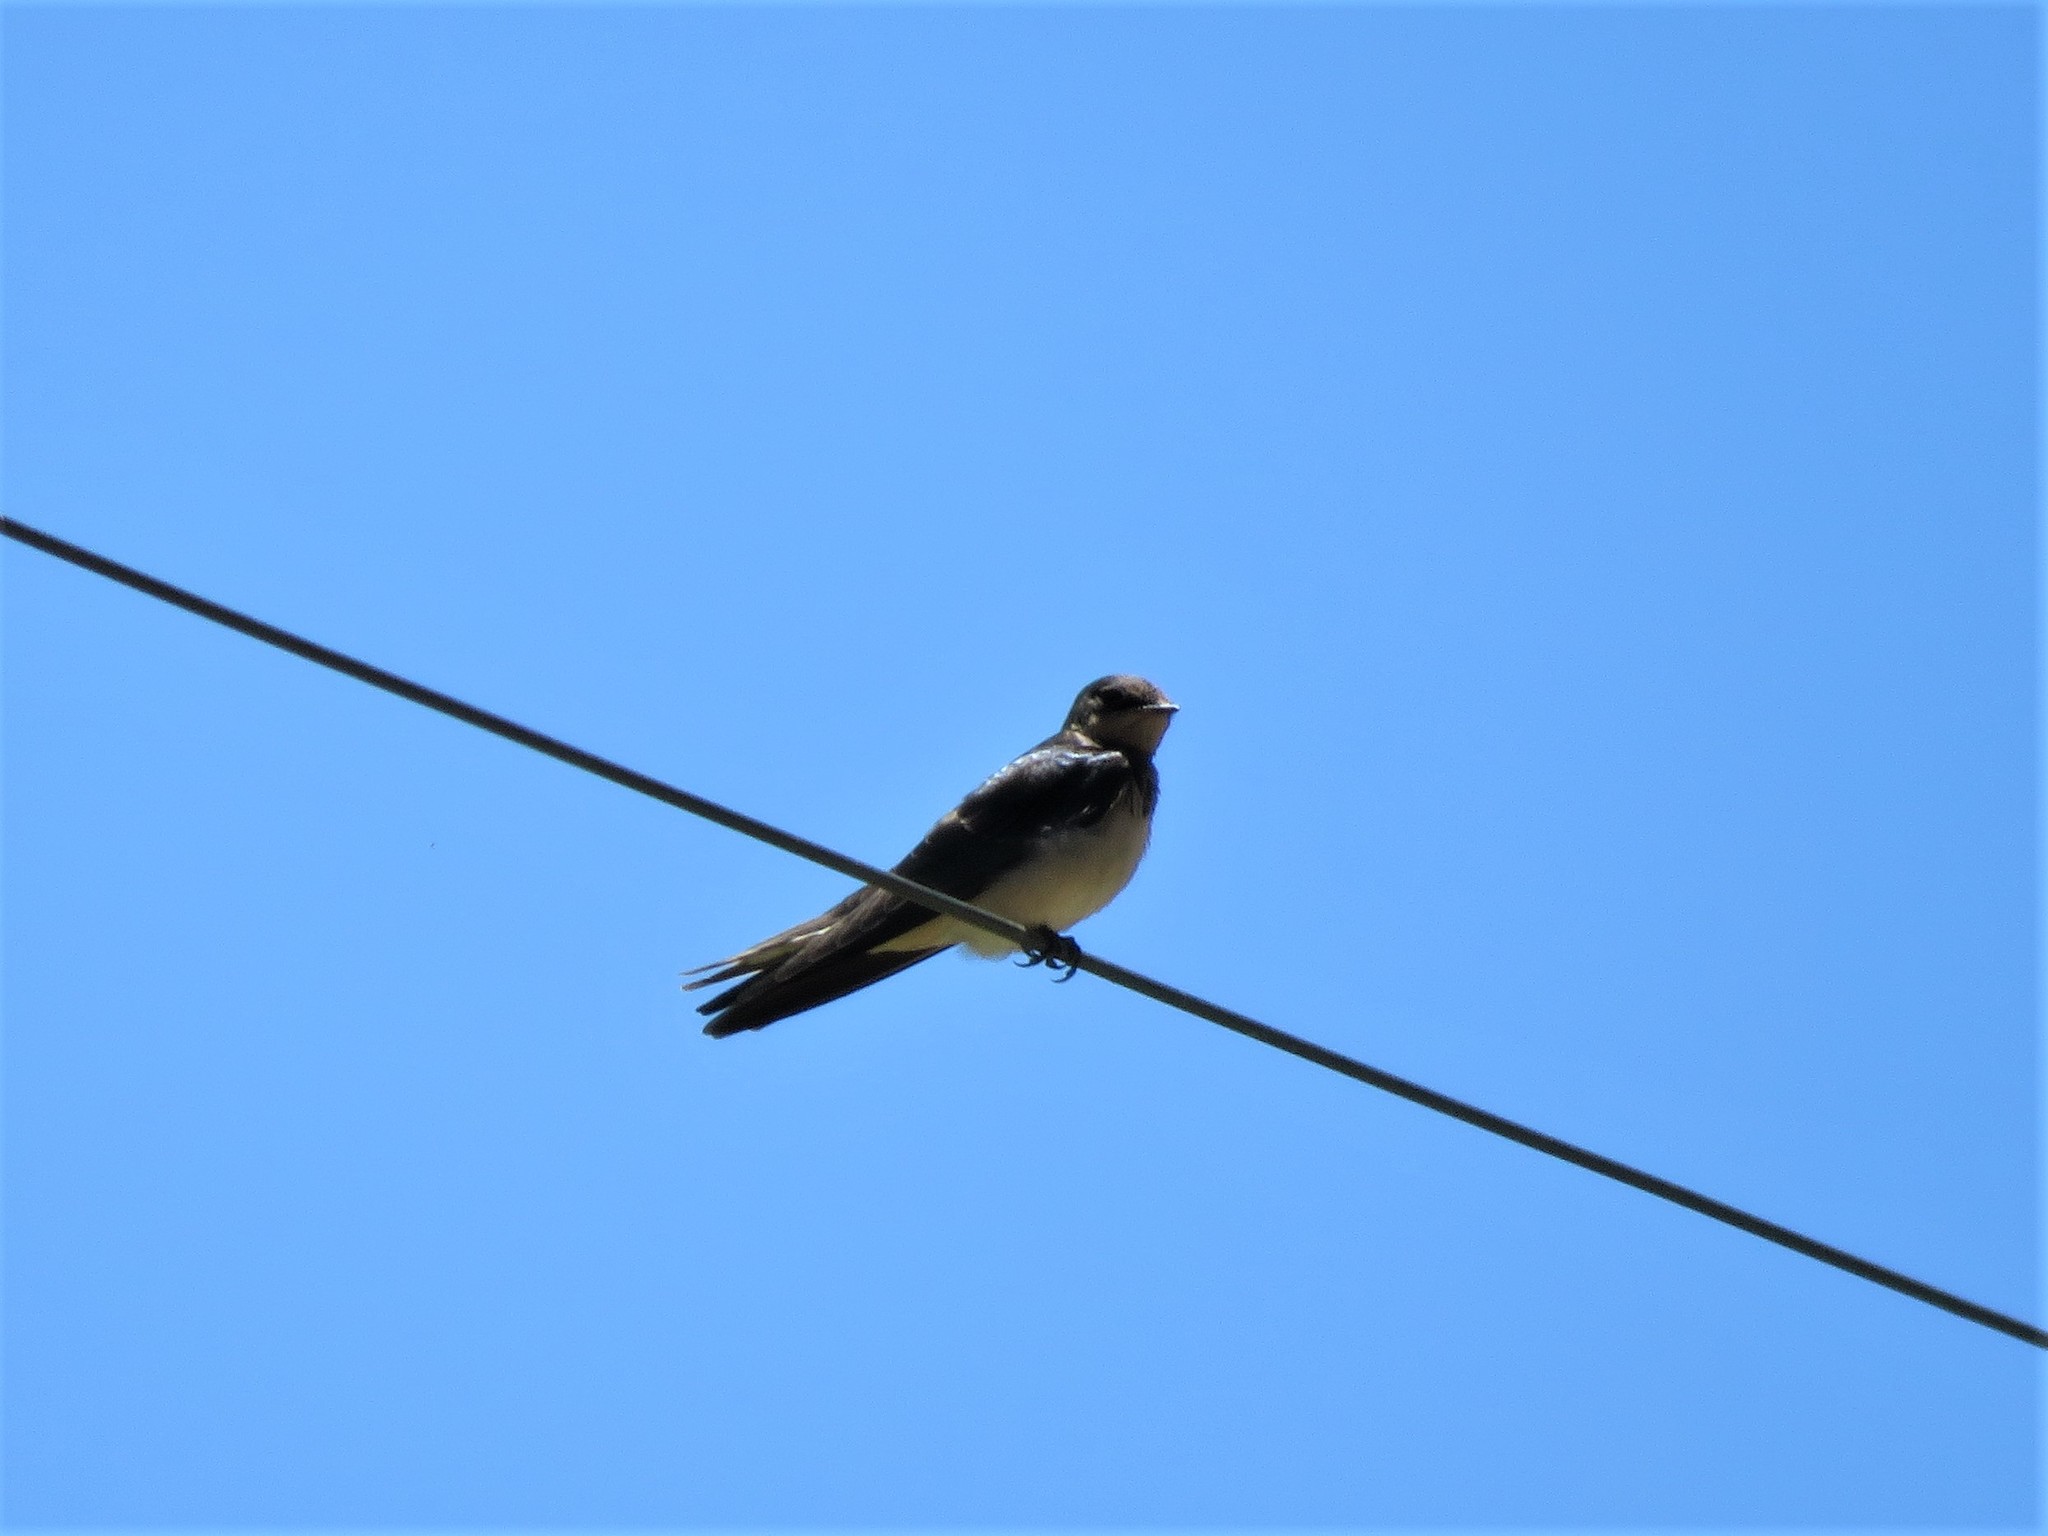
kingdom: Animalia
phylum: Chordata
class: Aves
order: Passeriformes
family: Hirundinidae
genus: Hirundo
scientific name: Hirundo rustica
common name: Barn swallow
